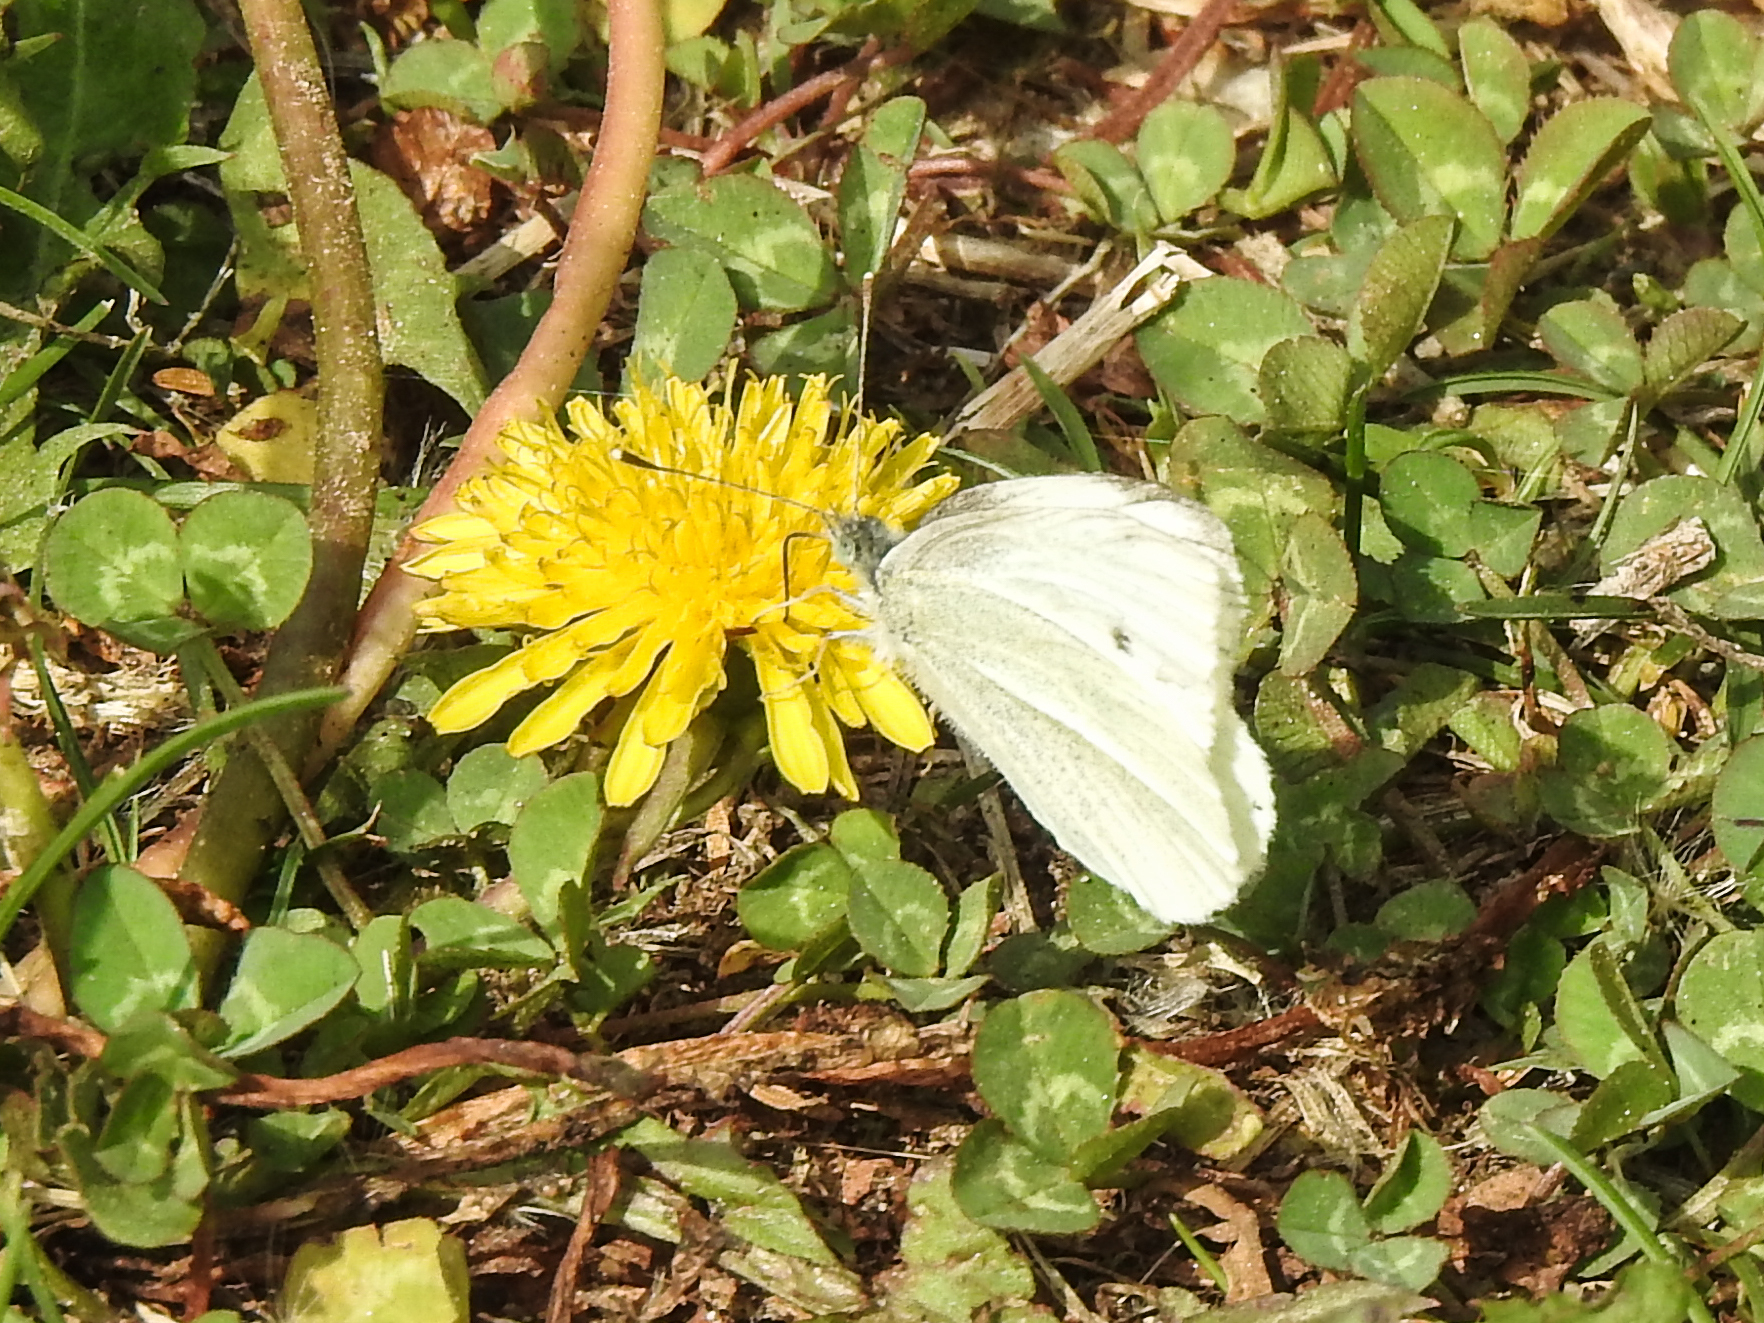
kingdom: Animalia
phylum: Arthropoda
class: Insecta
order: Lepidoptera
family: Pieridae
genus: Pieris
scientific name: Pieris rapae
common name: Small white
